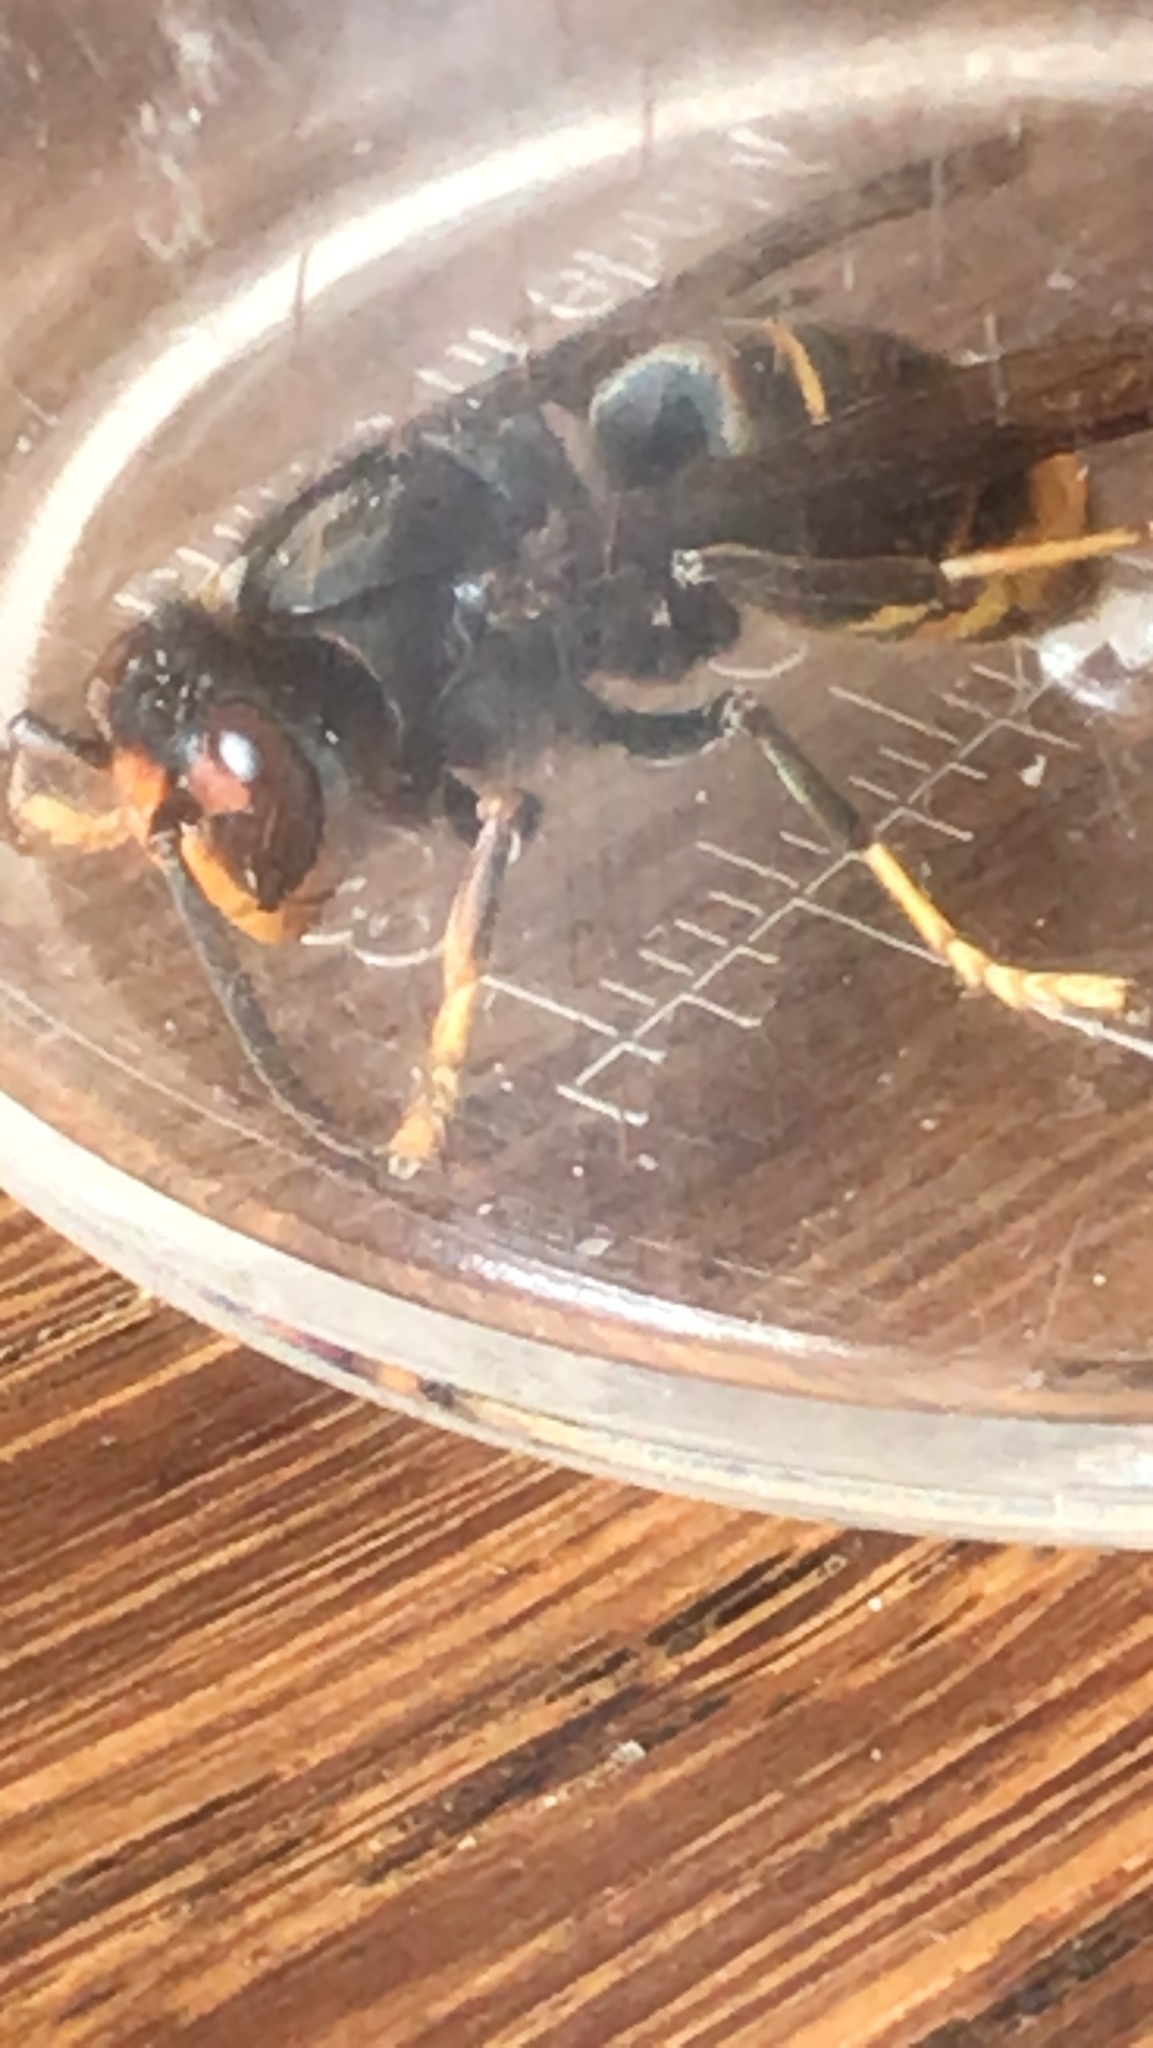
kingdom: Animalia
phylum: Arthropoda
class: Insecta
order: Hymenoptera
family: Vespidae
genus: Vespa
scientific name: Vespa velutina
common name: Asian hornet
